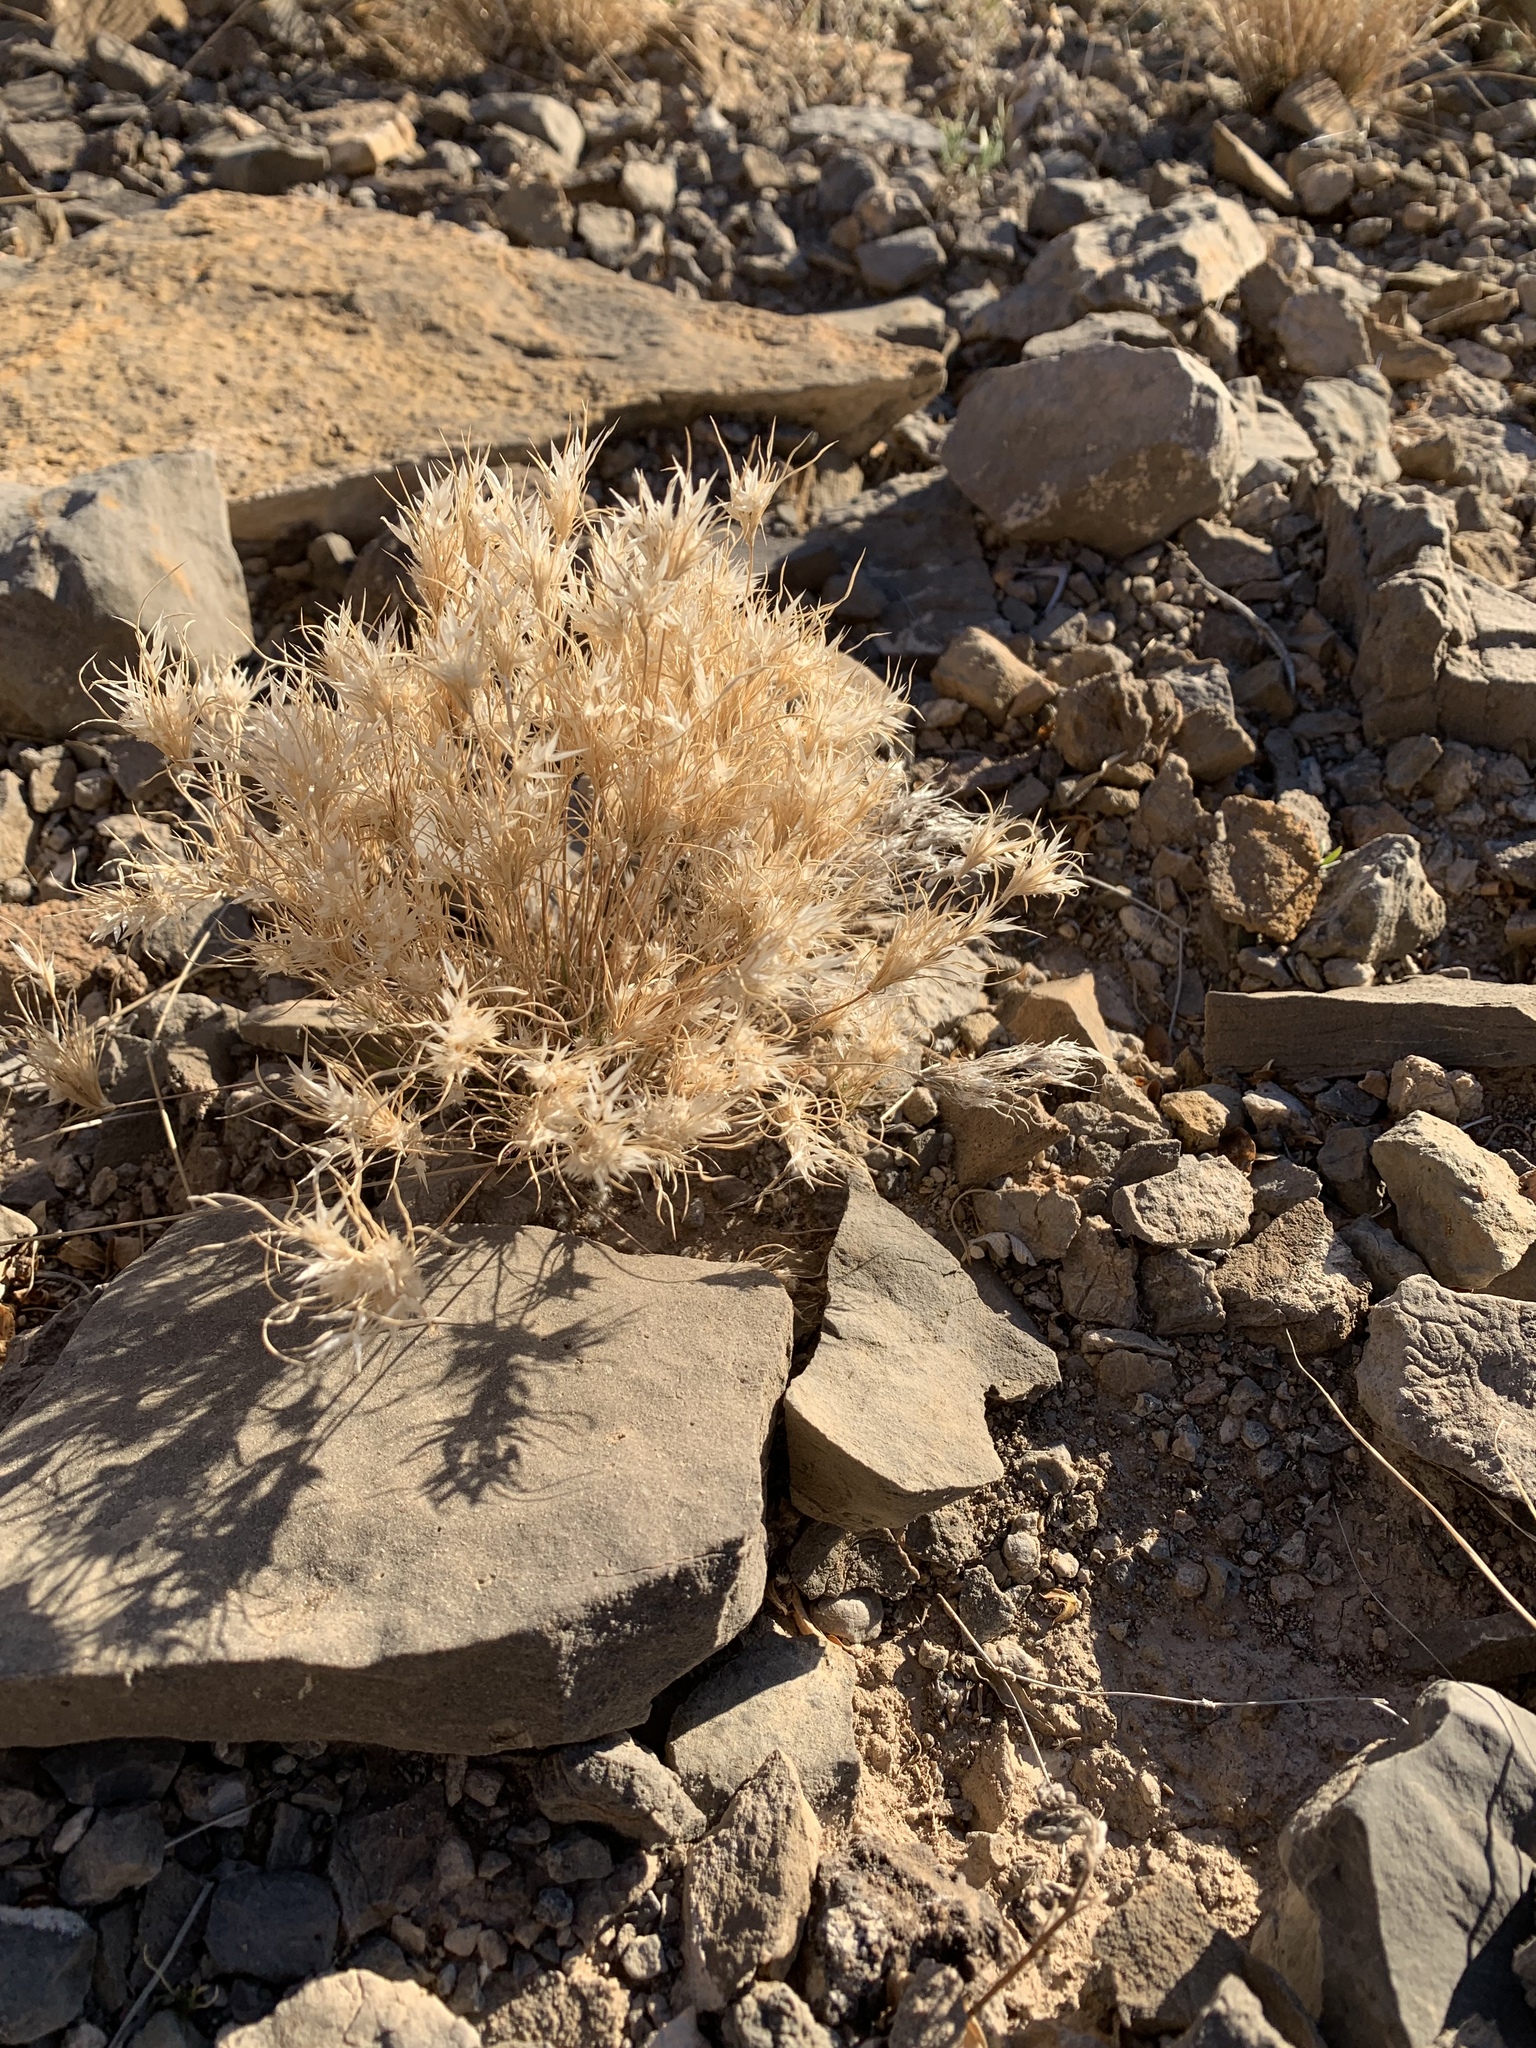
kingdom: Plantae
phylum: Tracheophyta
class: Liliopsida
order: Poales
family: Poaceae
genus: Dasyochloa
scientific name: Dasyochloa pulchella
